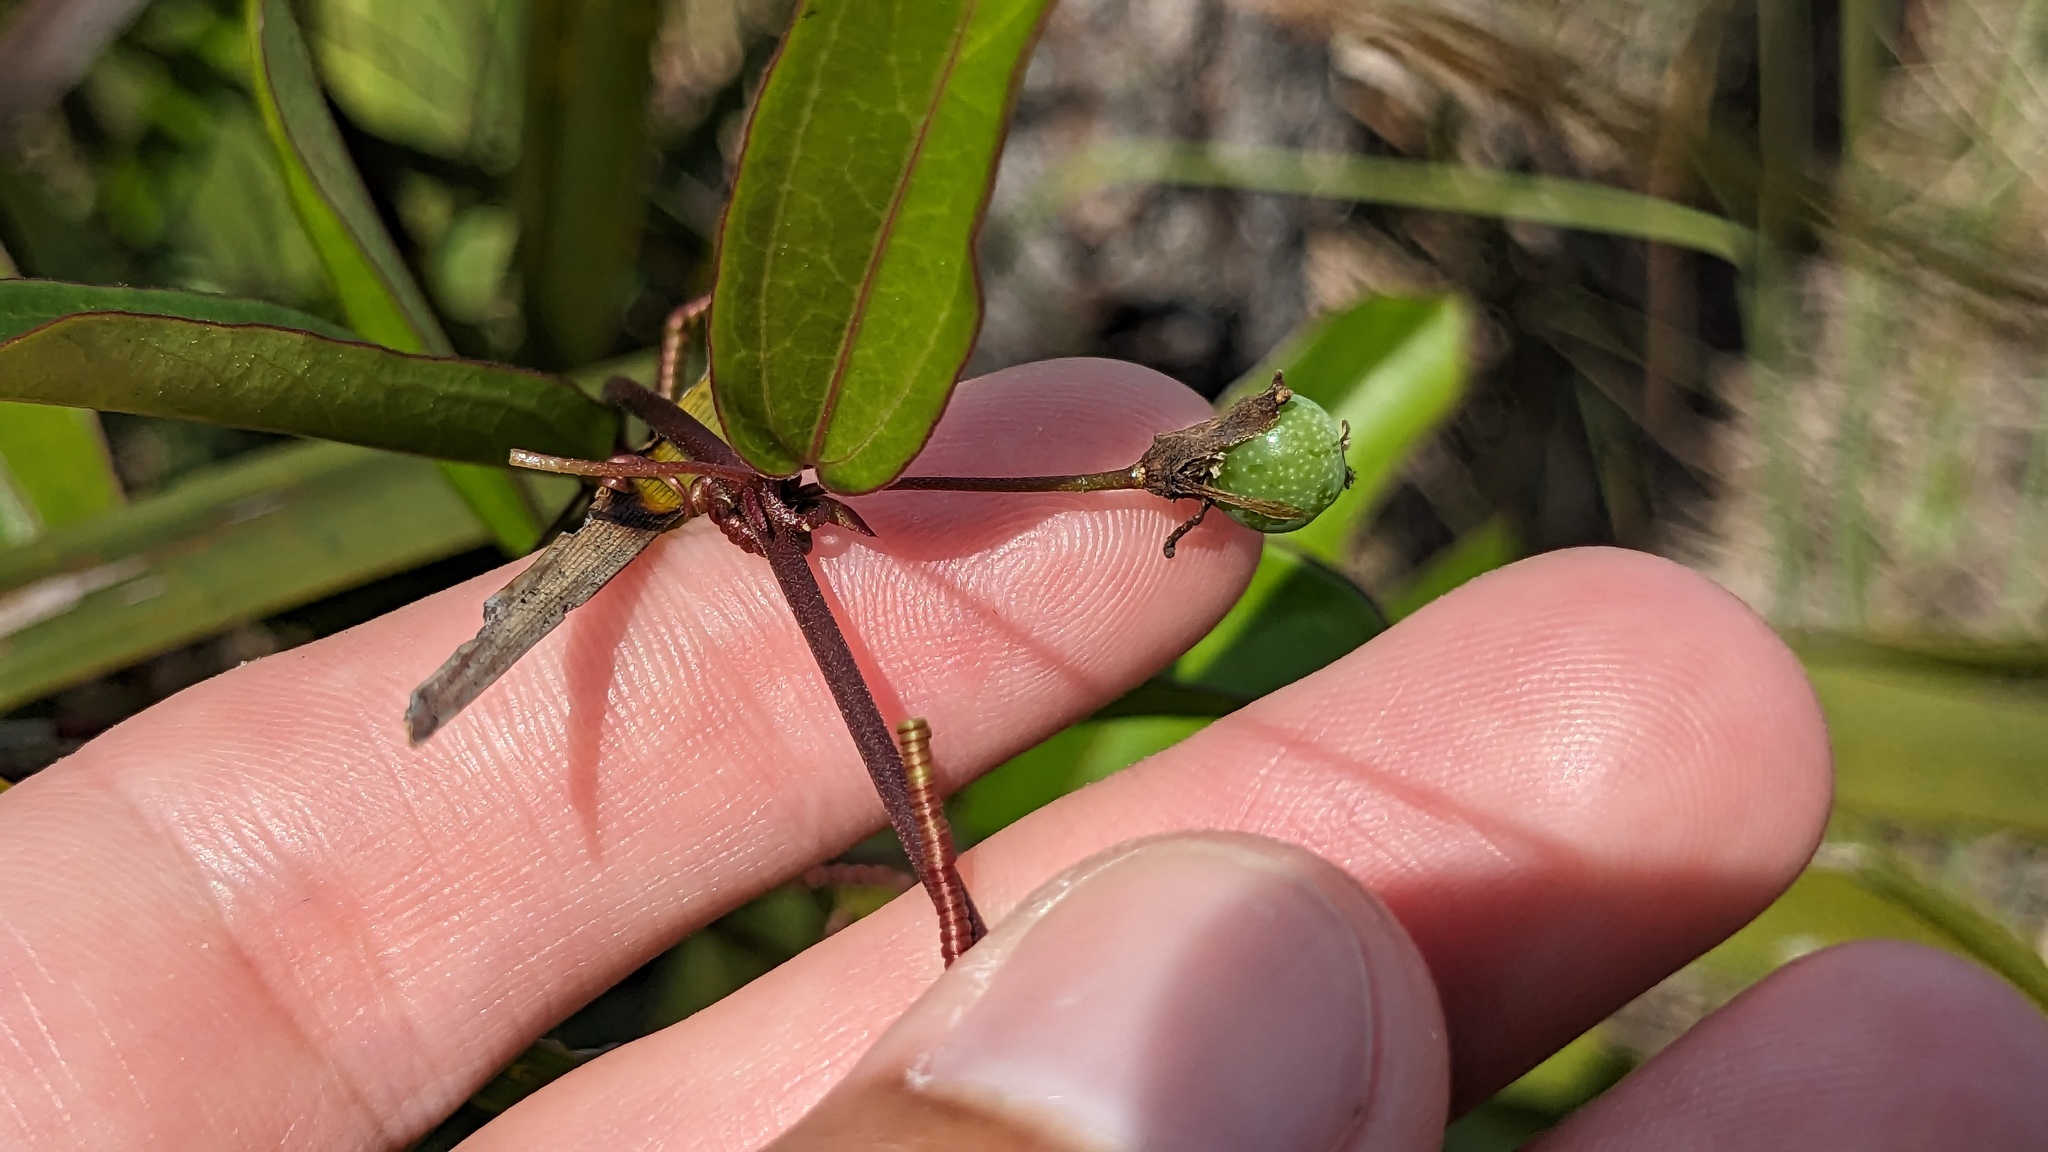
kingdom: Plantae
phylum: Tracheophyta
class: Magnoliopsida
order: Malpighiales
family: Passifloraceae
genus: Passiflora
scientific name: Passiflora pallida
